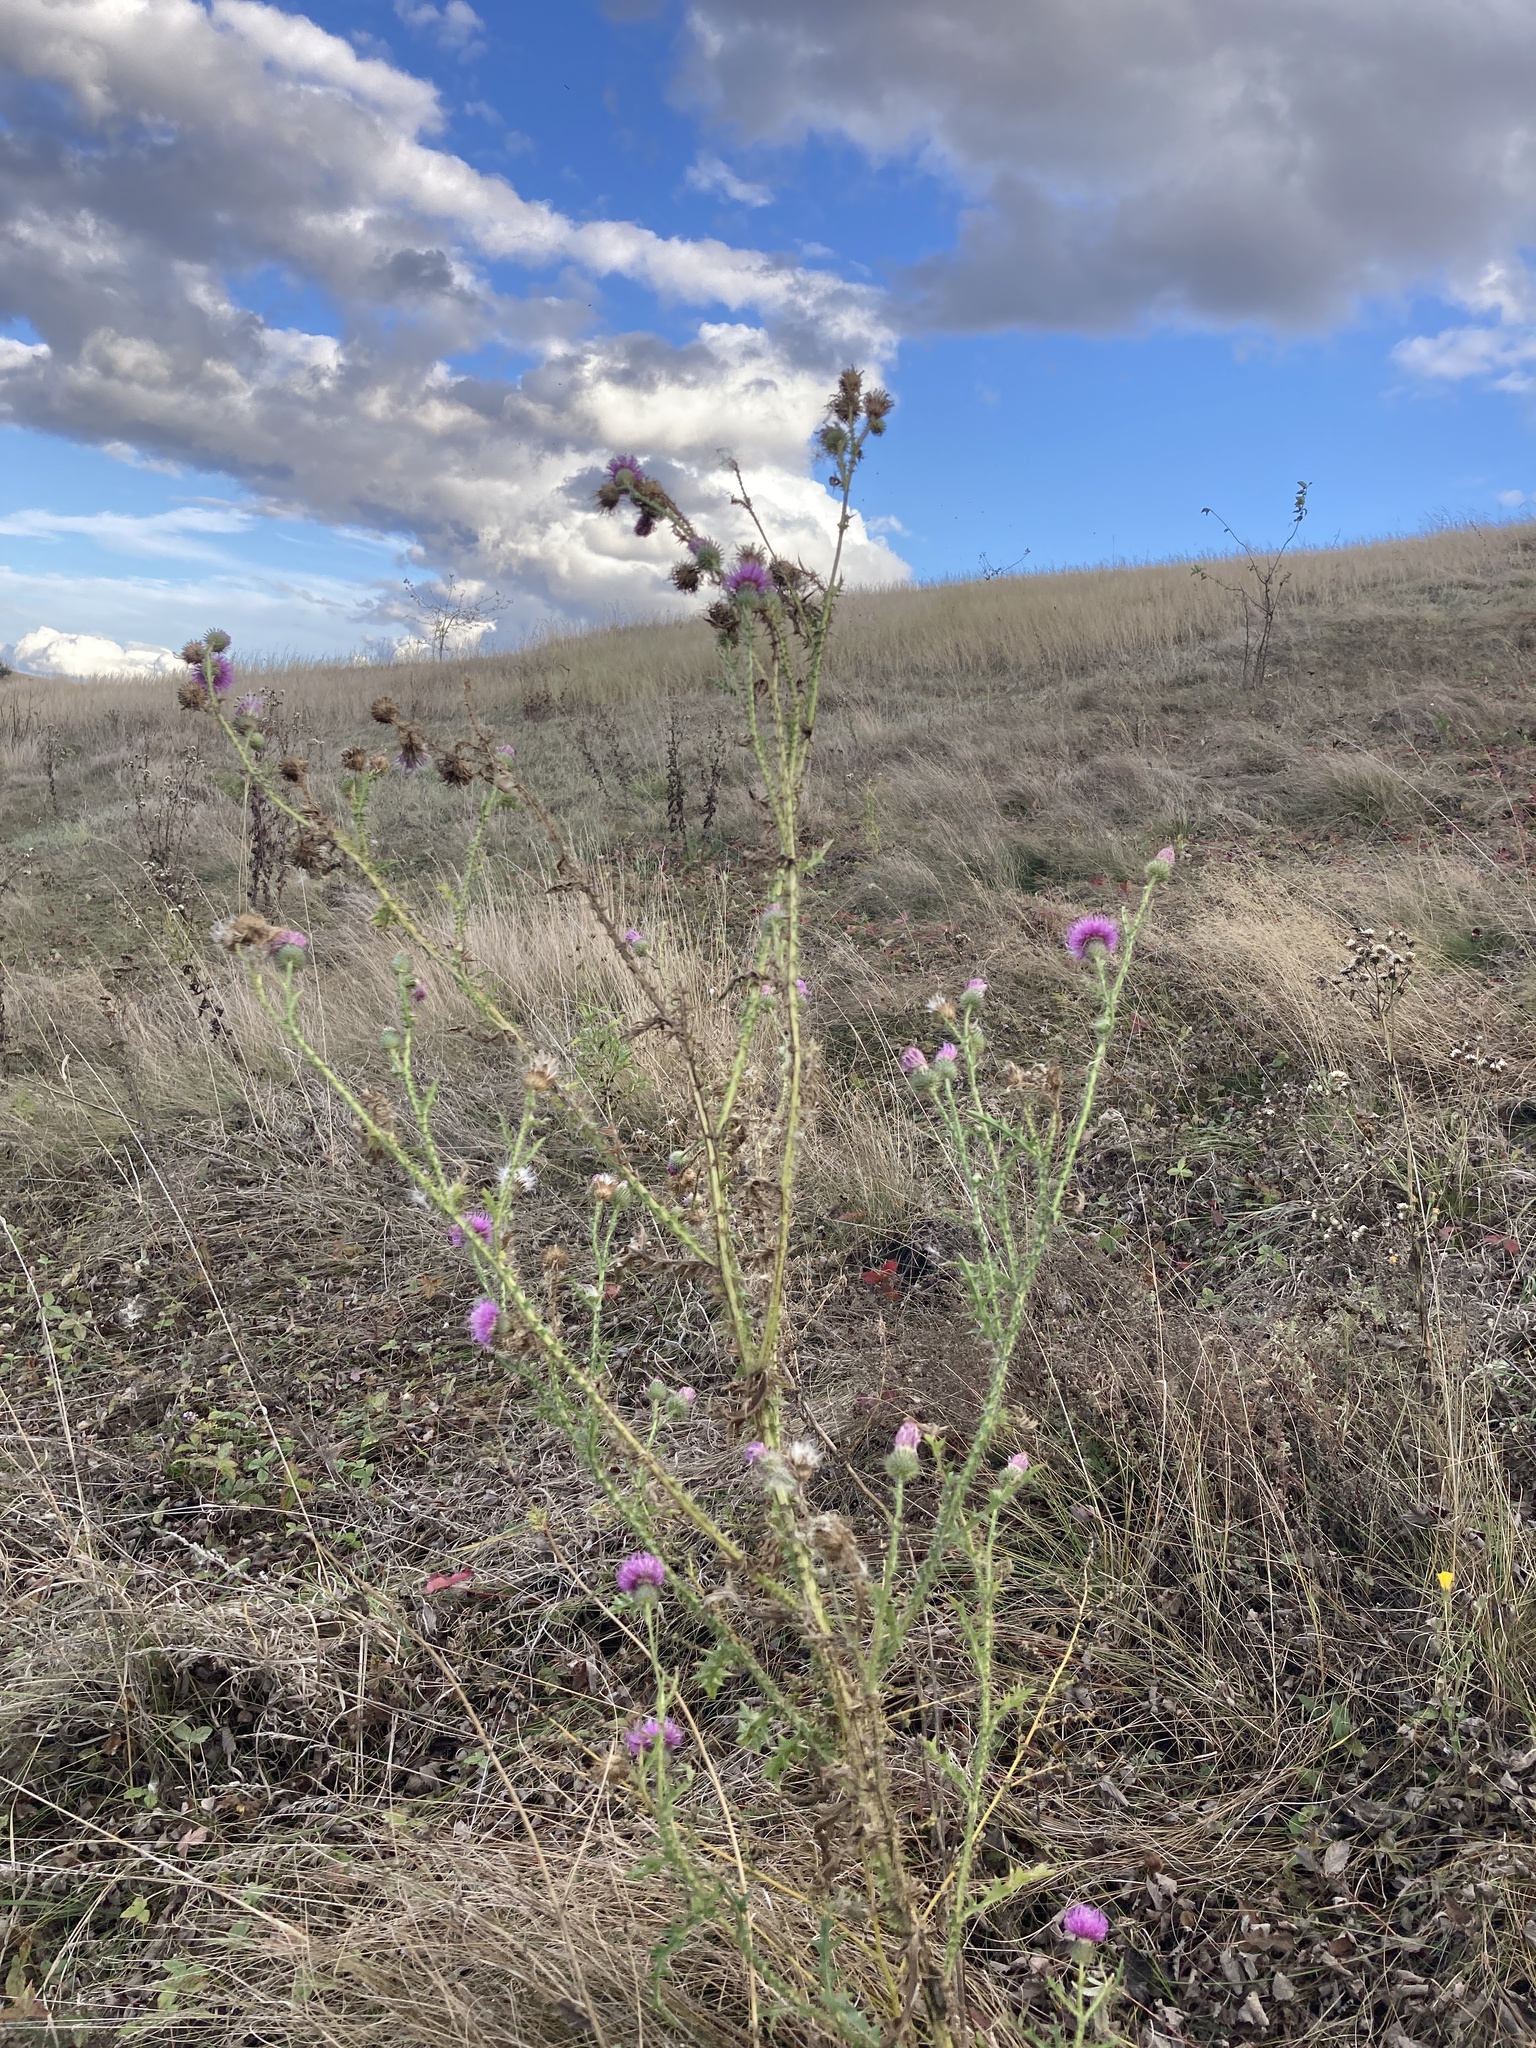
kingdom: Plantae
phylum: Tracheophyta
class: Magnoliopsida
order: Asterales
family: Asteraceae
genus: Carduus
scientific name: Carduus acanthoides
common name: Plumeless thistle
